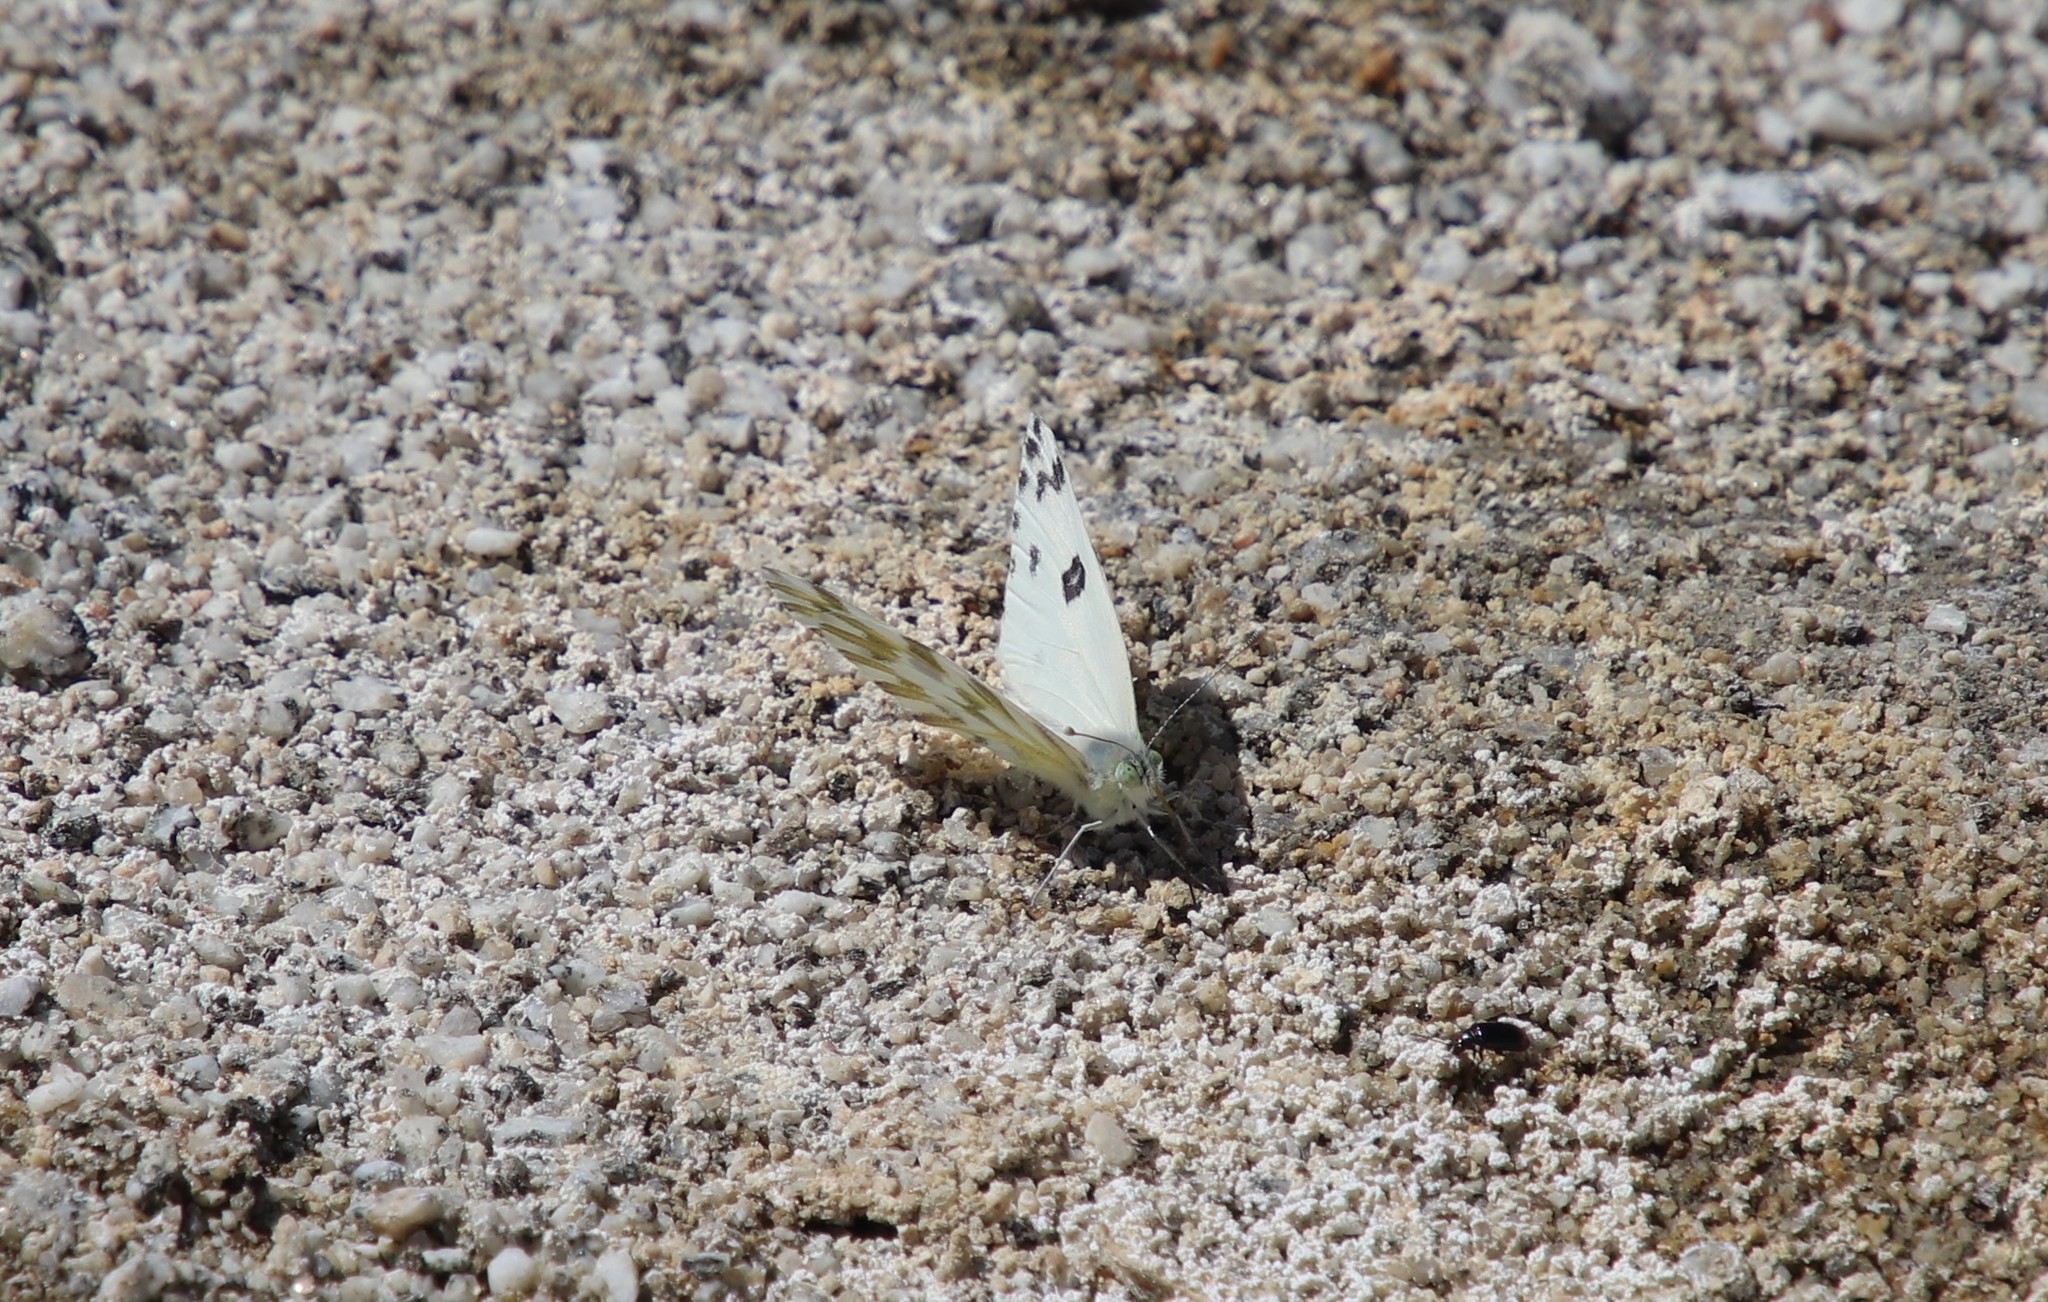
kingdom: Animalia
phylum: Arthropoda
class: Insecta
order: Lepidoptera
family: Pieridae
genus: Pontia
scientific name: Pontia beckerii
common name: Becker's white
